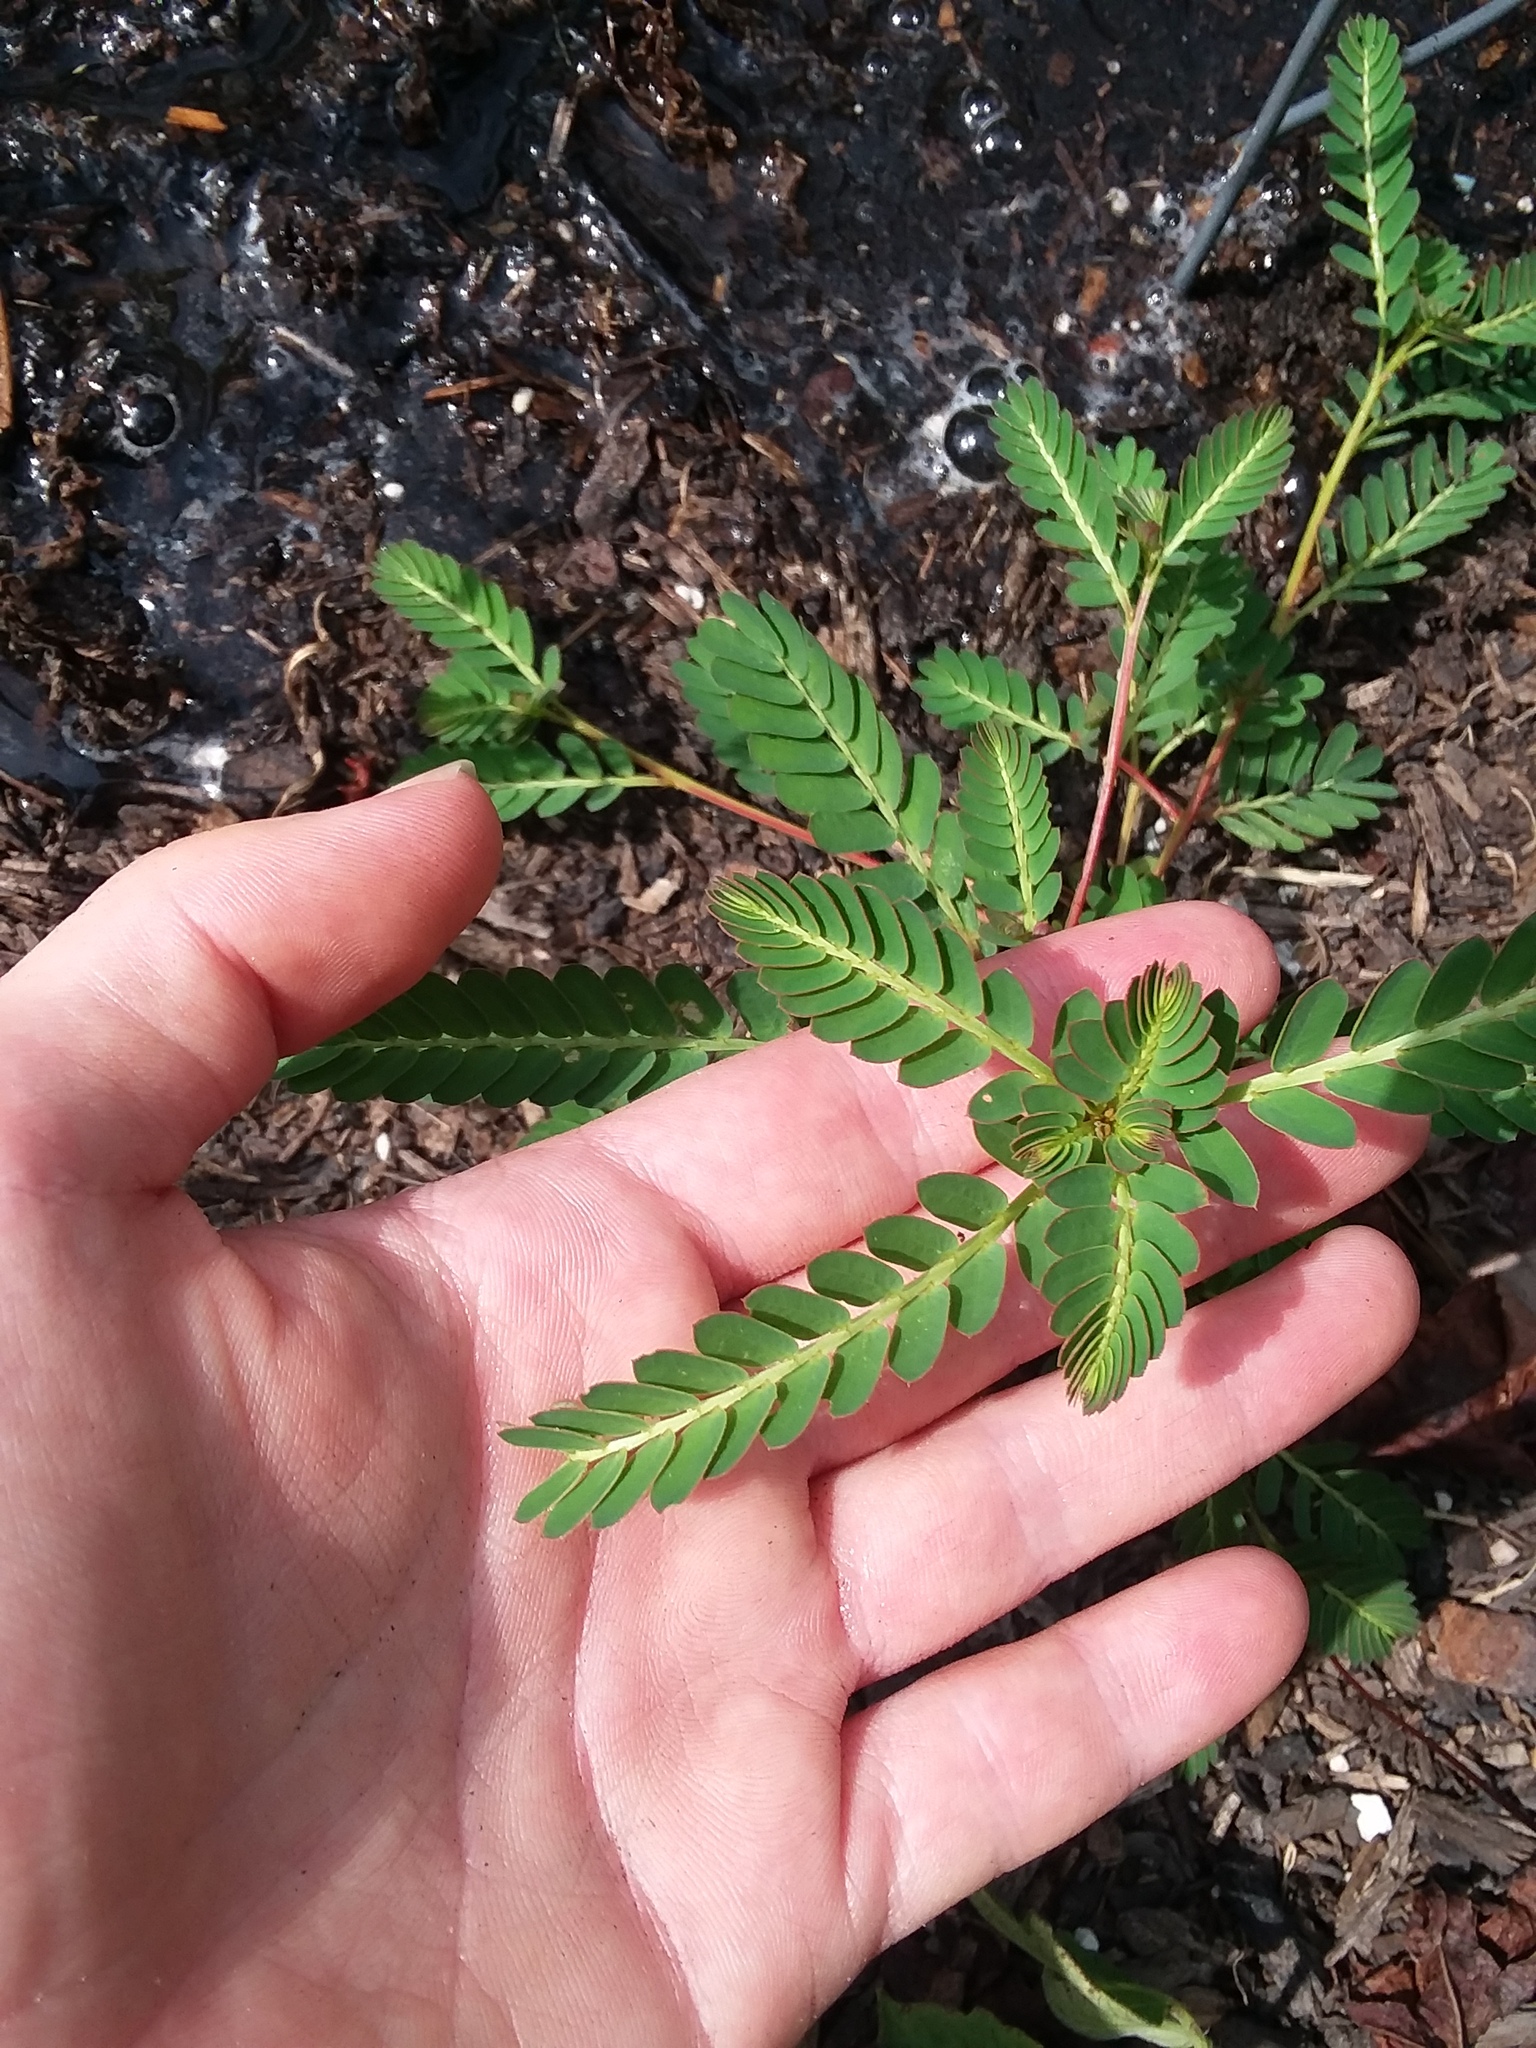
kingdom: Plantae
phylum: Tracheophyta
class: Magnoliopsida
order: Malpighiales
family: Phyllanthaceae
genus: Phyllanthus
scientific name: Phyllanthus urinaria
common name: Chamber bitter
